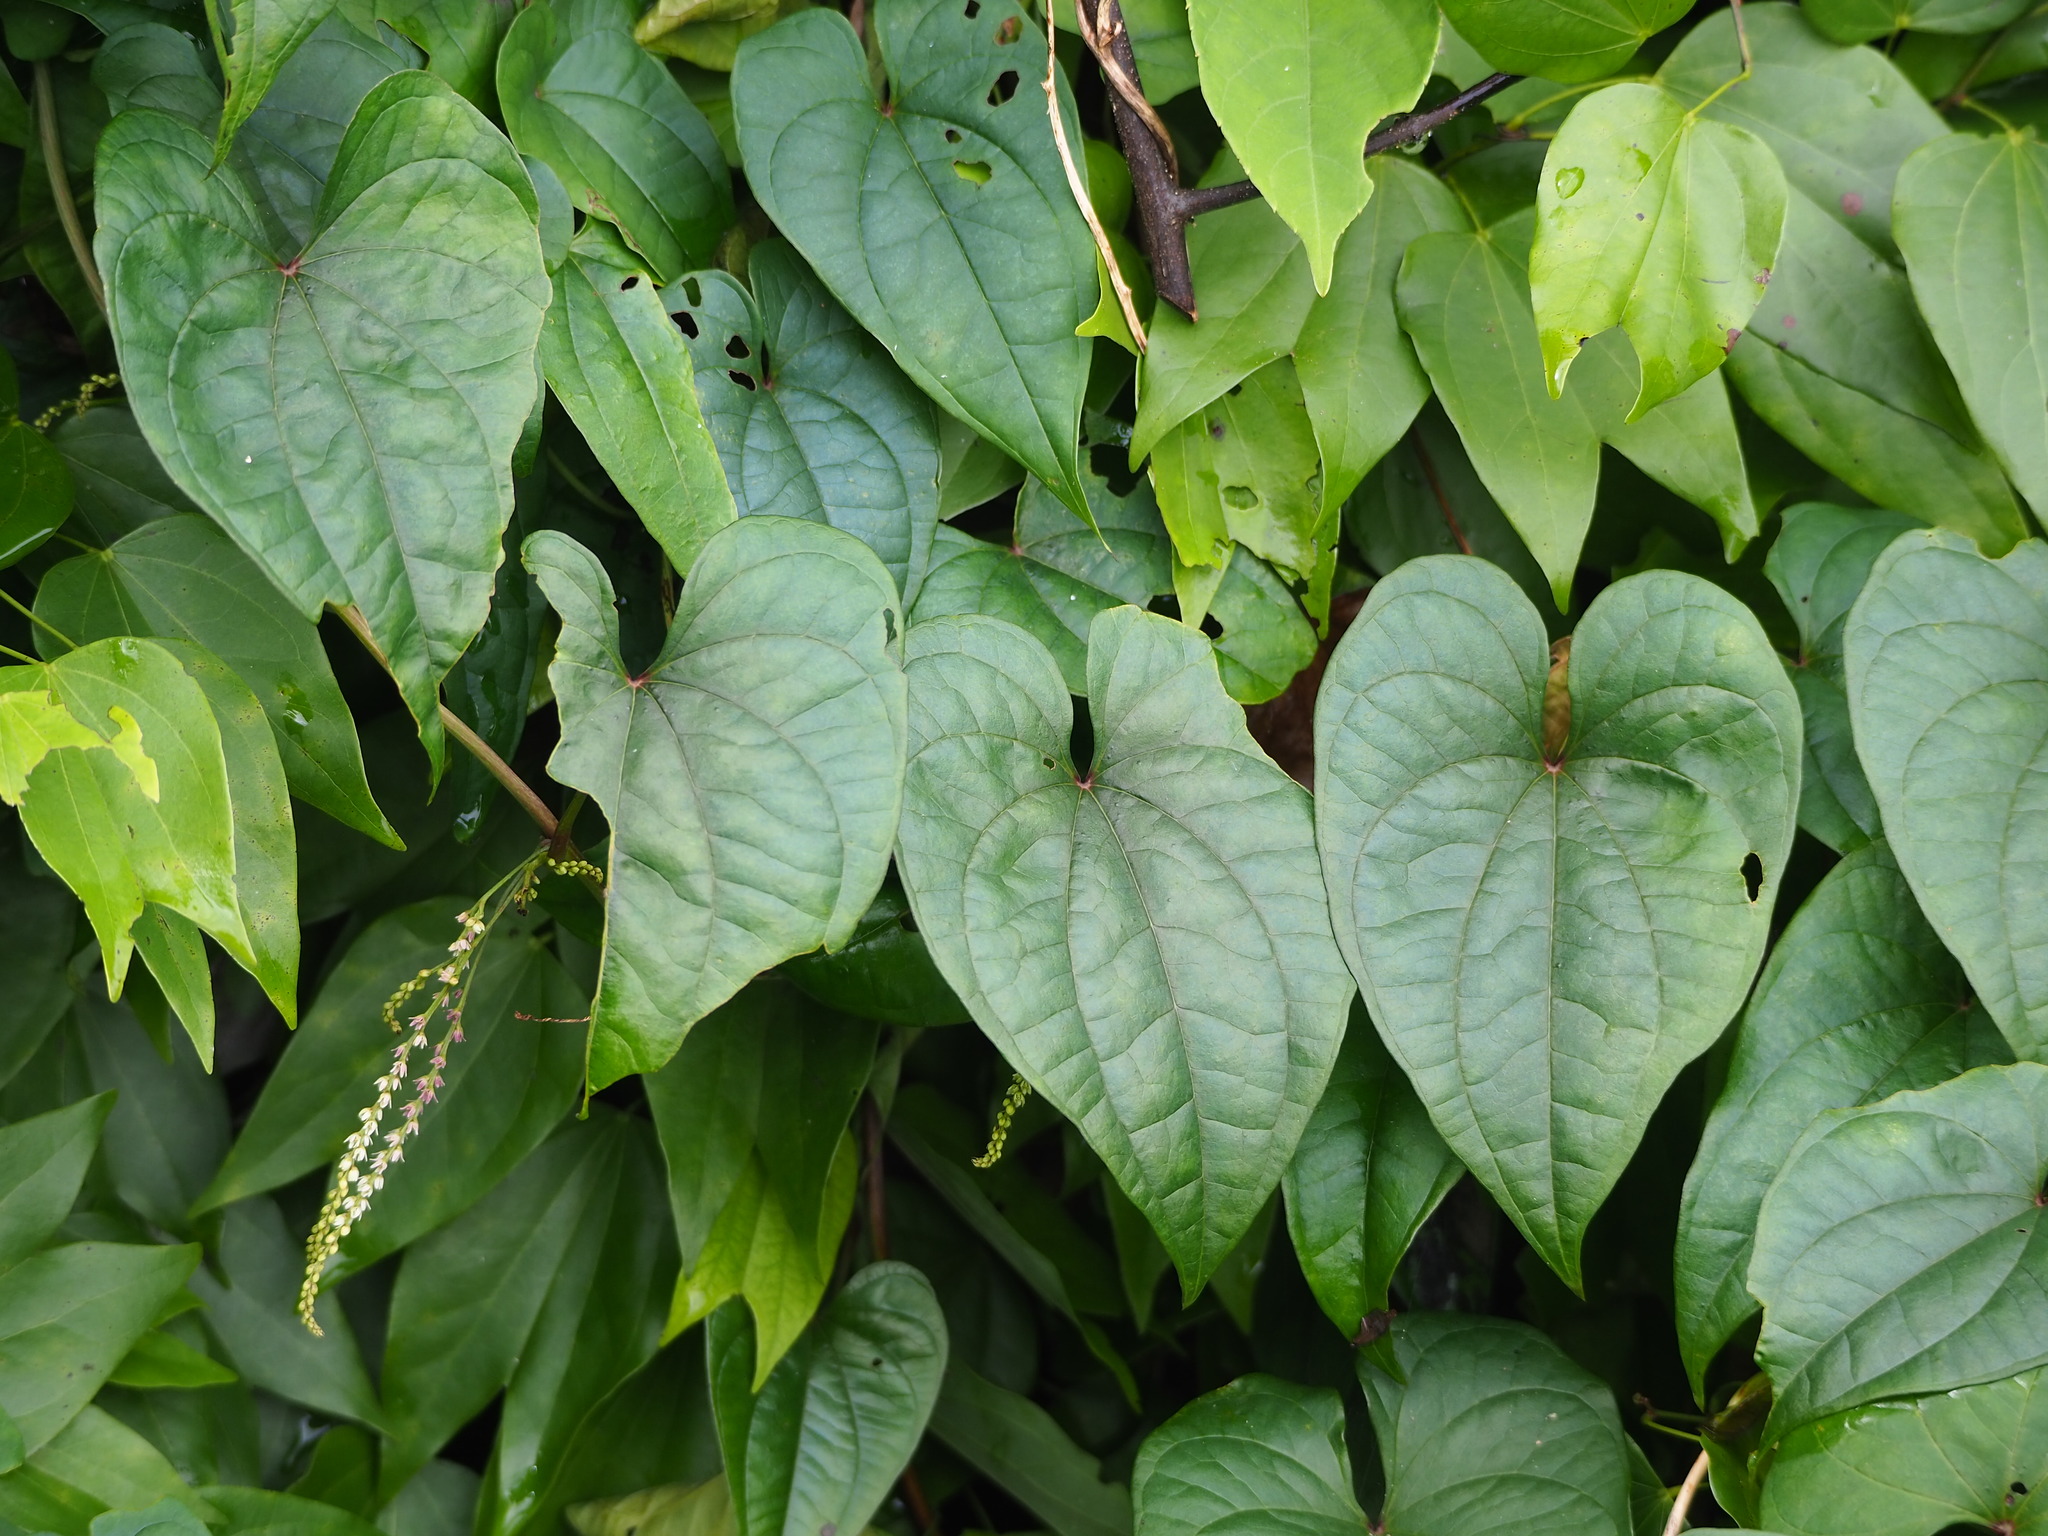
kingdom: Plantae
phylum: Tracheophyta
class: Liliopsida
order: Dioscoreales
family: Dioscoreaceae
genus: Dioscorea
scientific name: Dioscorea bulbifera
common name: Air yam
